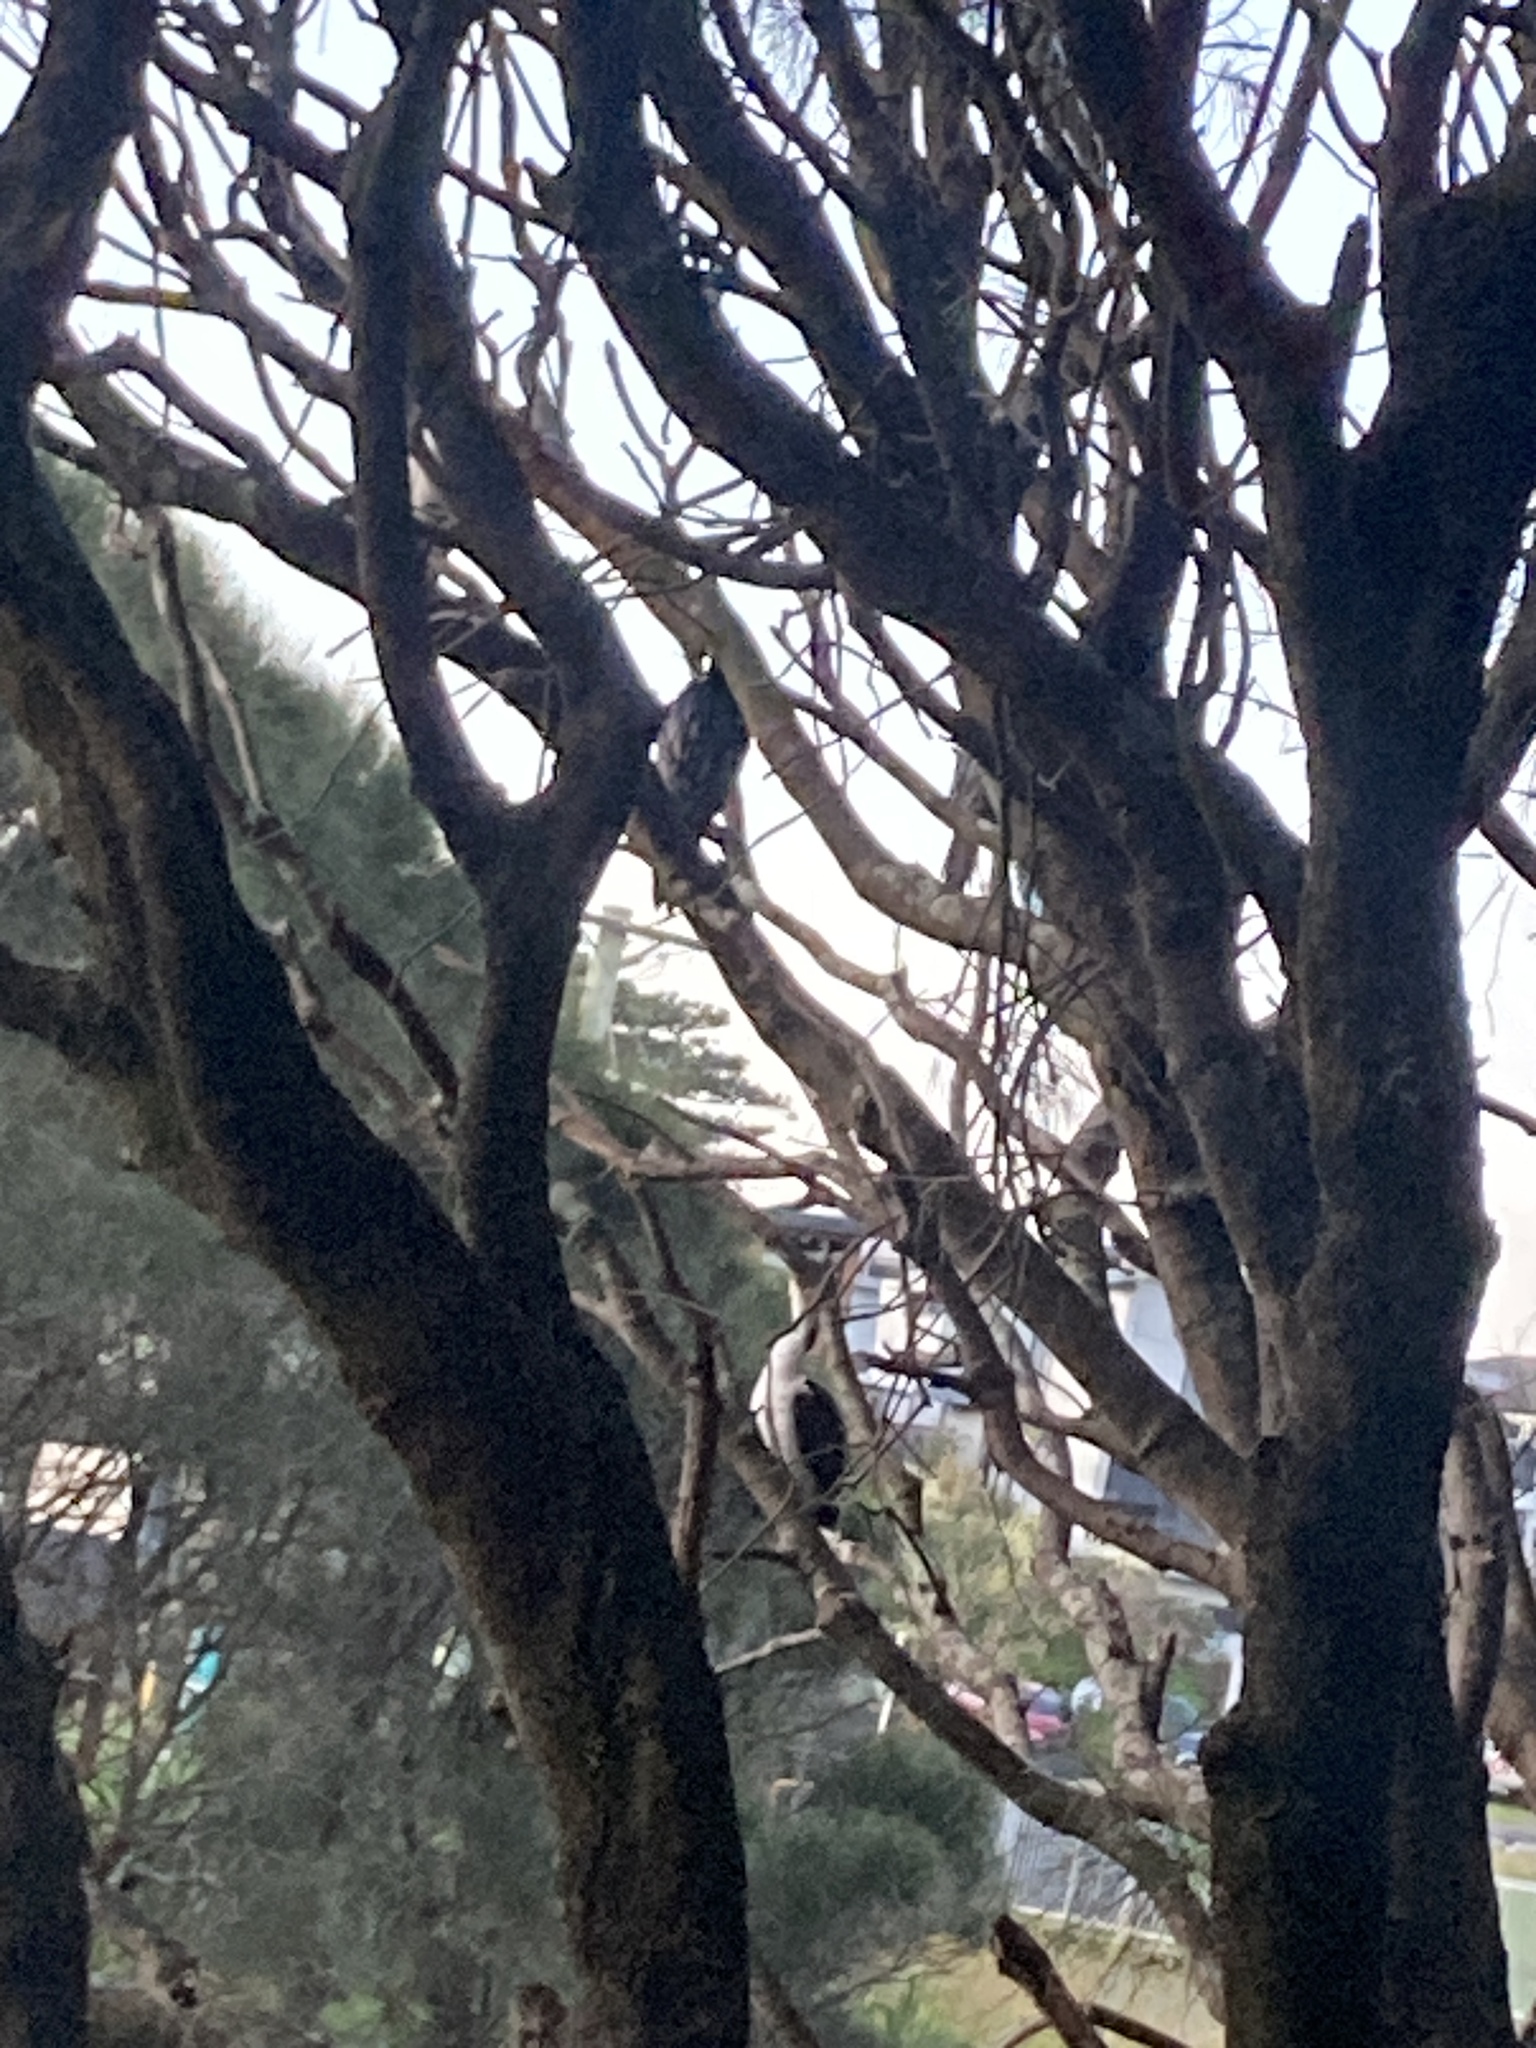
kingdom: Animalia
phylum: Chordata
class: Aves
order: Suliformes
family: Phalacrocoracidae
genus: Microcarbo
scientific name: Microcarbo melanoleucos
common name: Little pied cormorant
